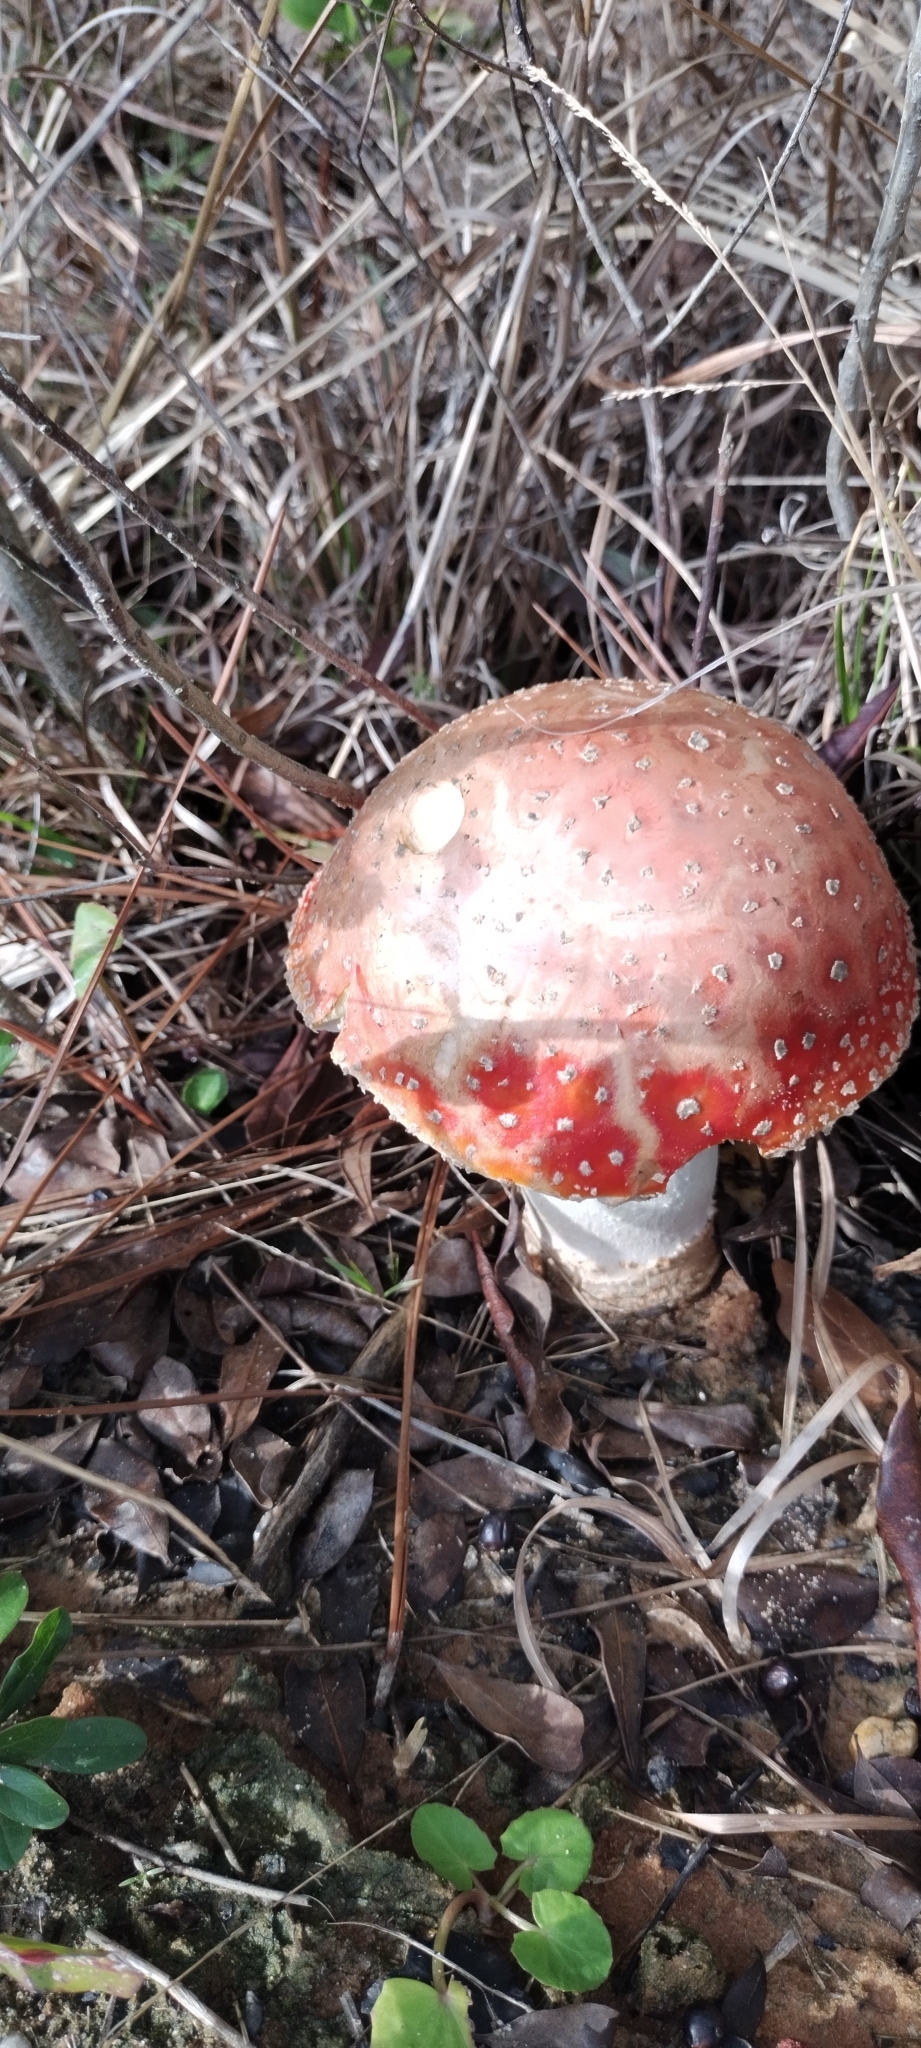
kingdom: Fungi
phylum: Basidiomycota
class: Agaricomycetes
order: Agaricales
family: Amanitaceae
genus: Amanita
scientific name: Amanita persicina
